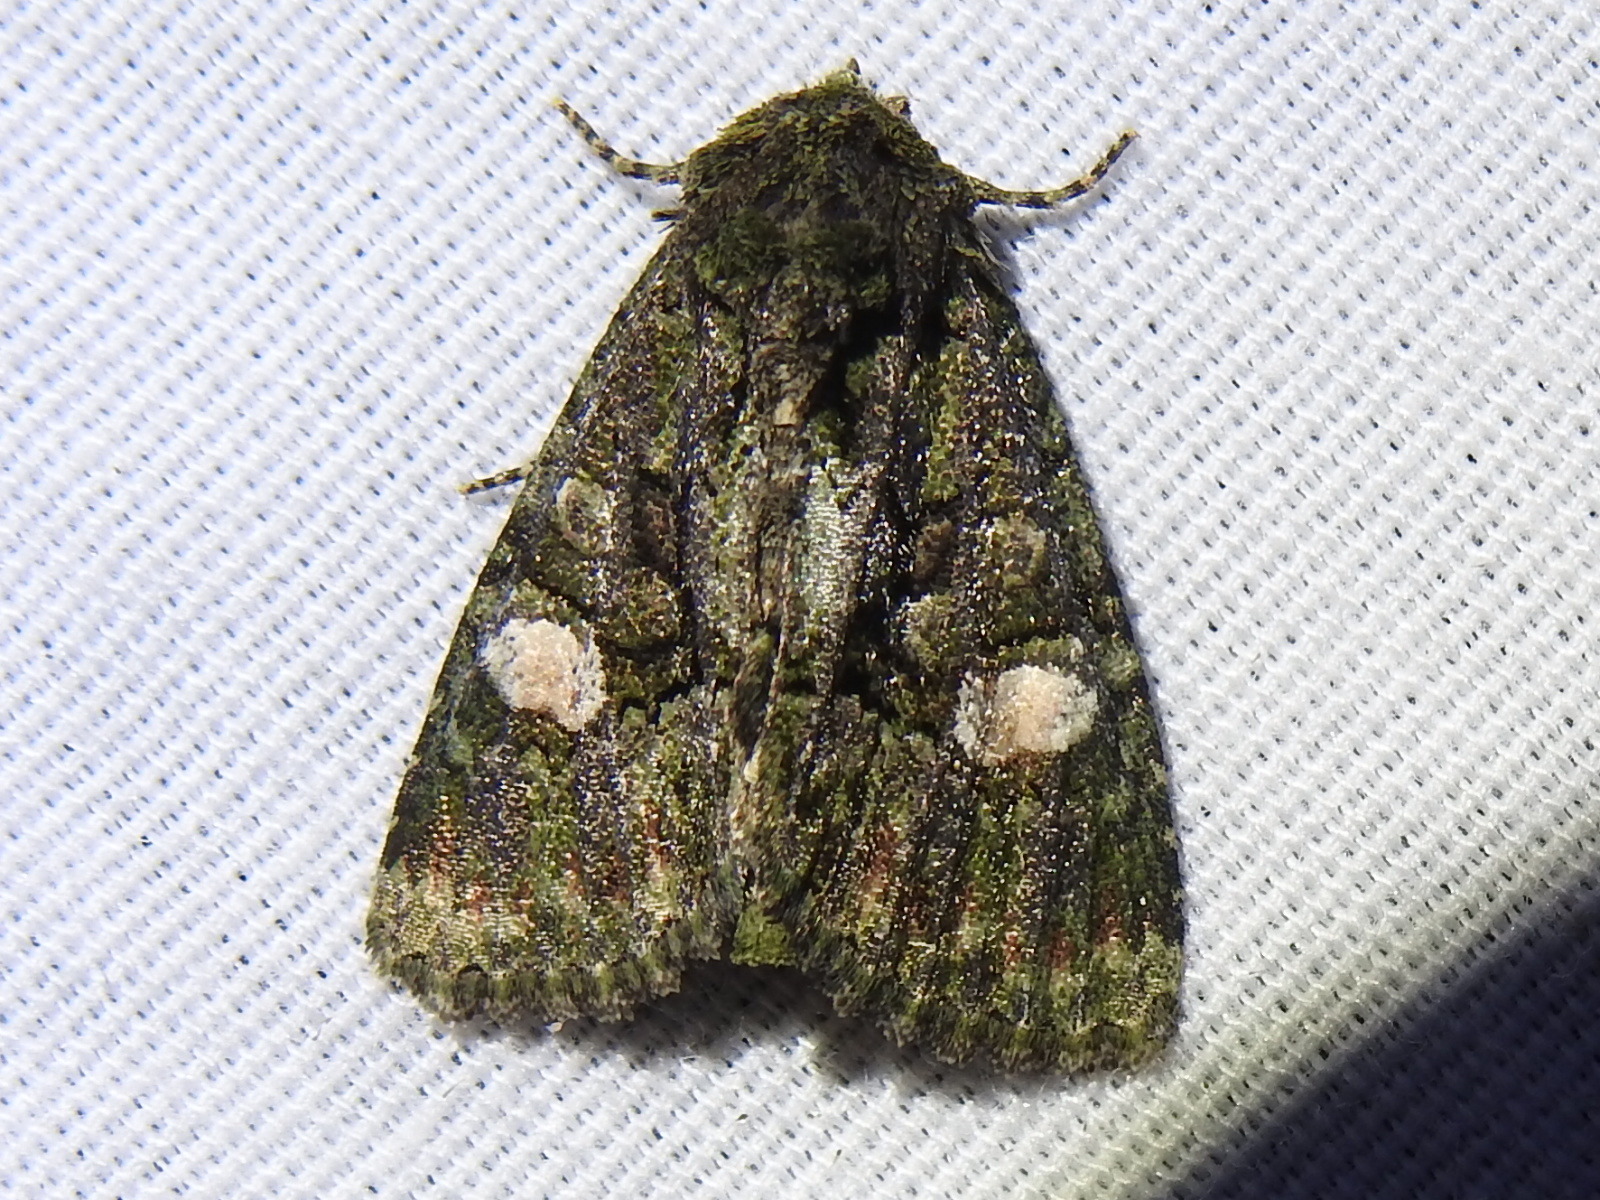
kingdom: Animalia
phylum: Arthropoda
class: Insecta
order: Lepidoptera
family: Noctuidae
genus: Phosphila
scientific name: Phosphila miselioides
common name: Spotted phosphila moth
